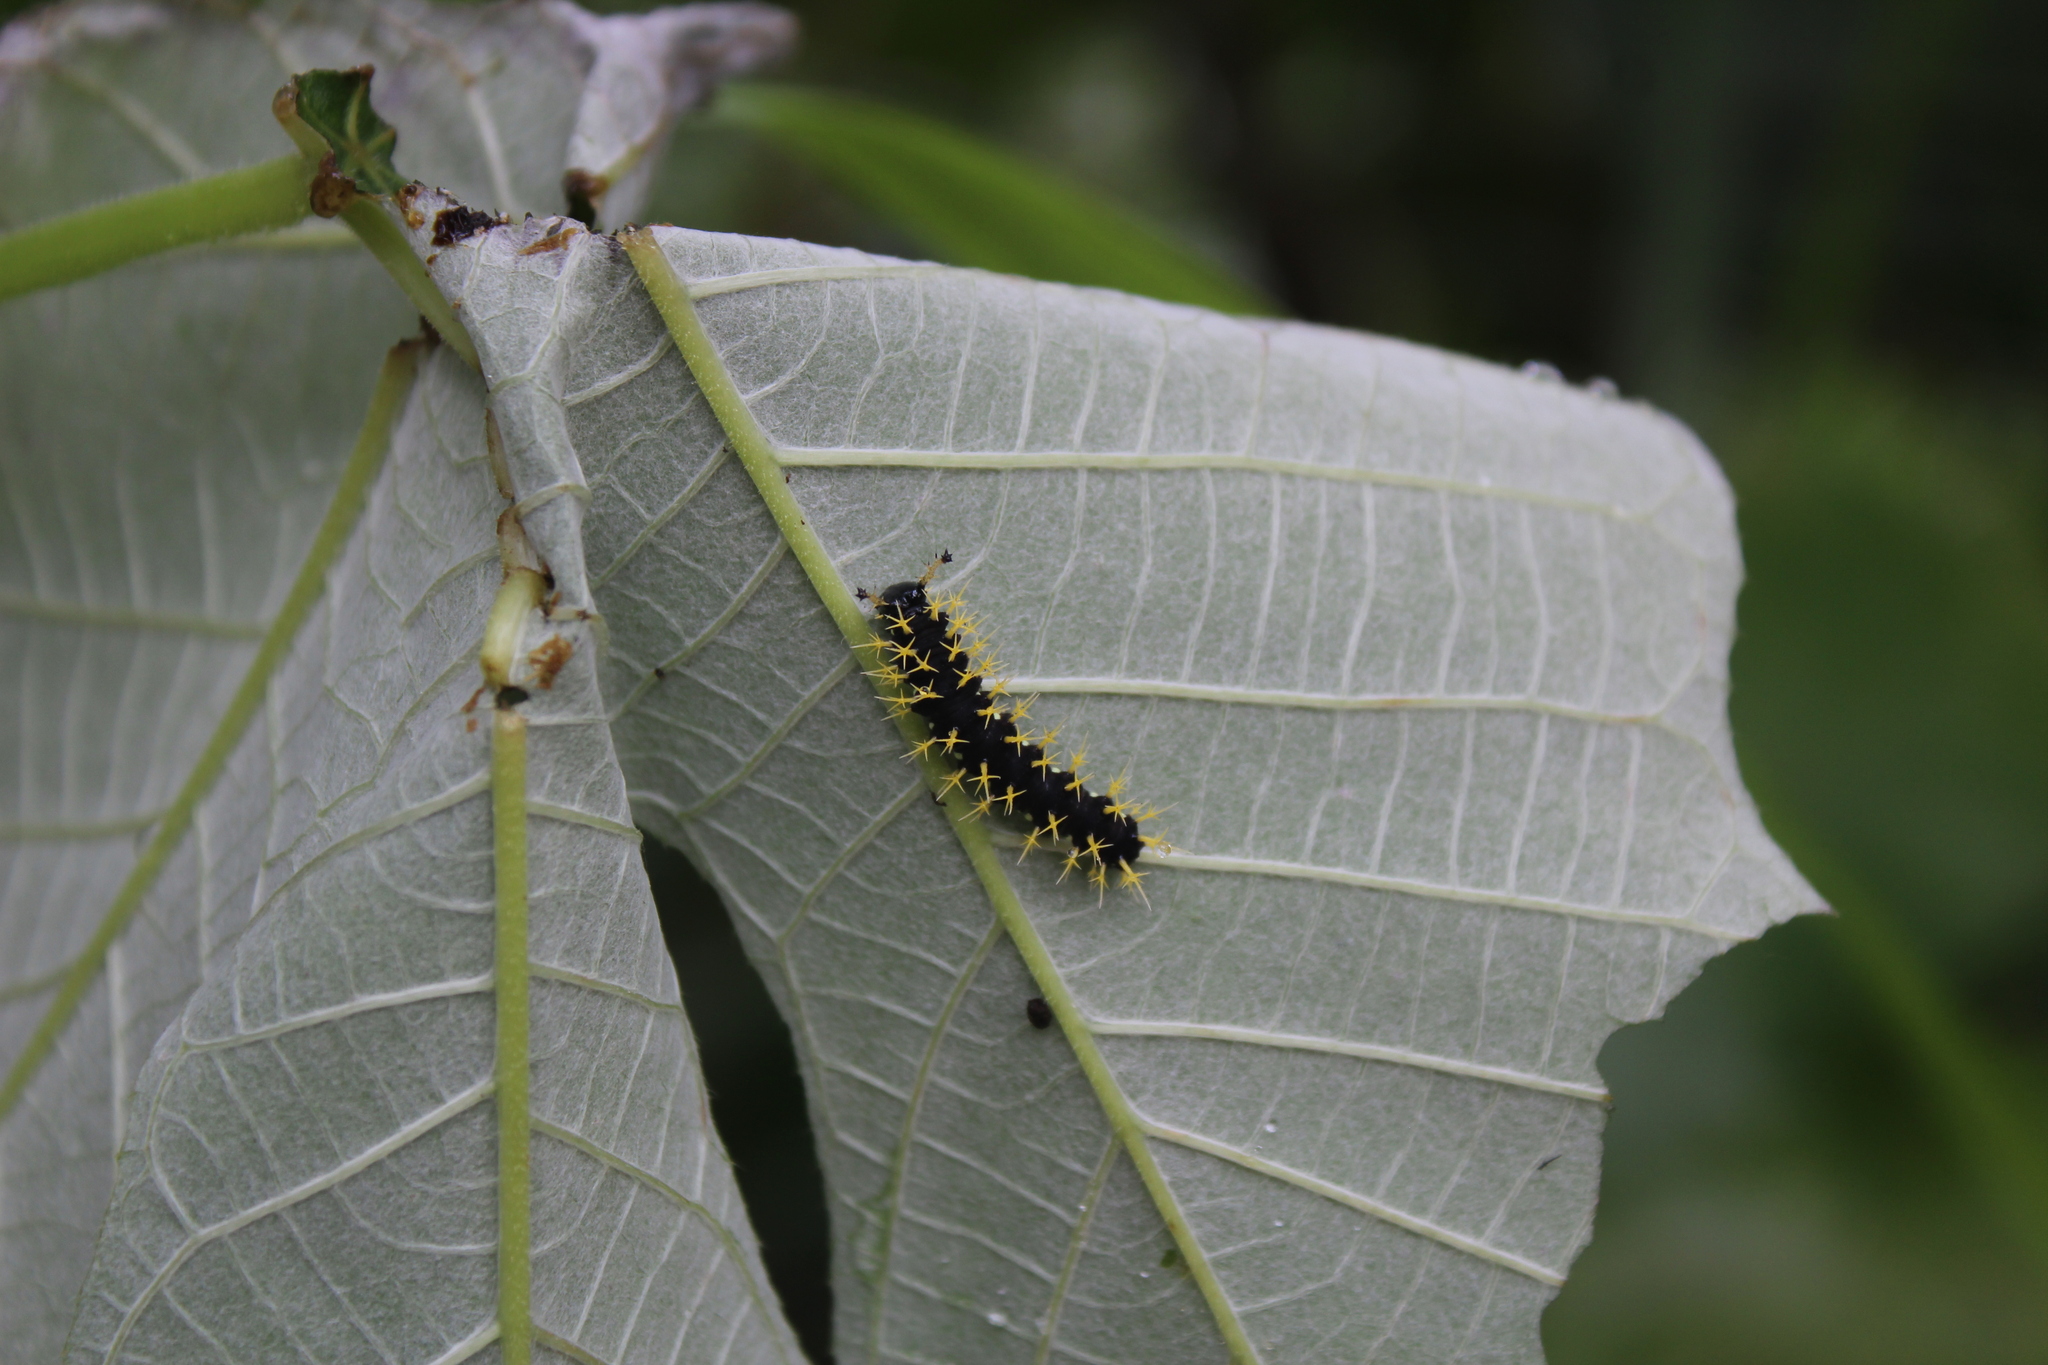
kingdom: Animalia
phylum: Arthropoda
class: Insecta
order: Lepidoptera
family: Nymphalidae
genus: Colobura
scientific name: Colobura dirce
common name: Dirce beauty
